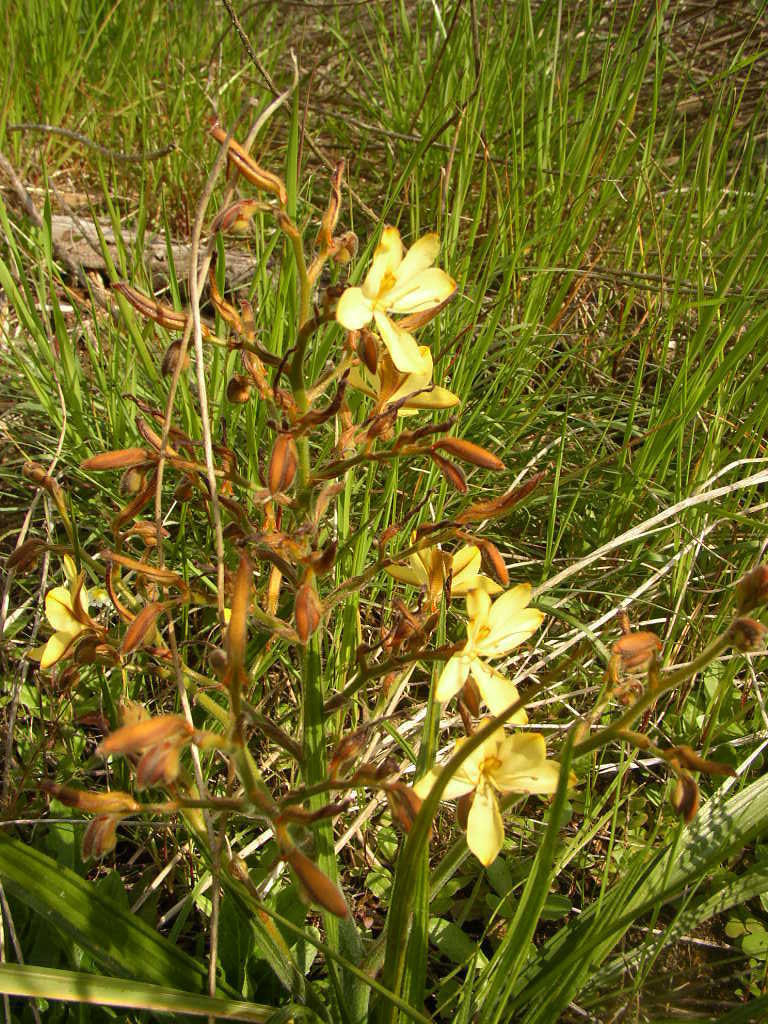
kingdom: Plantae
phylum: Tracheophyta
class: Liliopsida
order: Commelinales
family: Haemodoraceae
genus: Wachendorfia
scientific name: Wachendorfia paniculata
